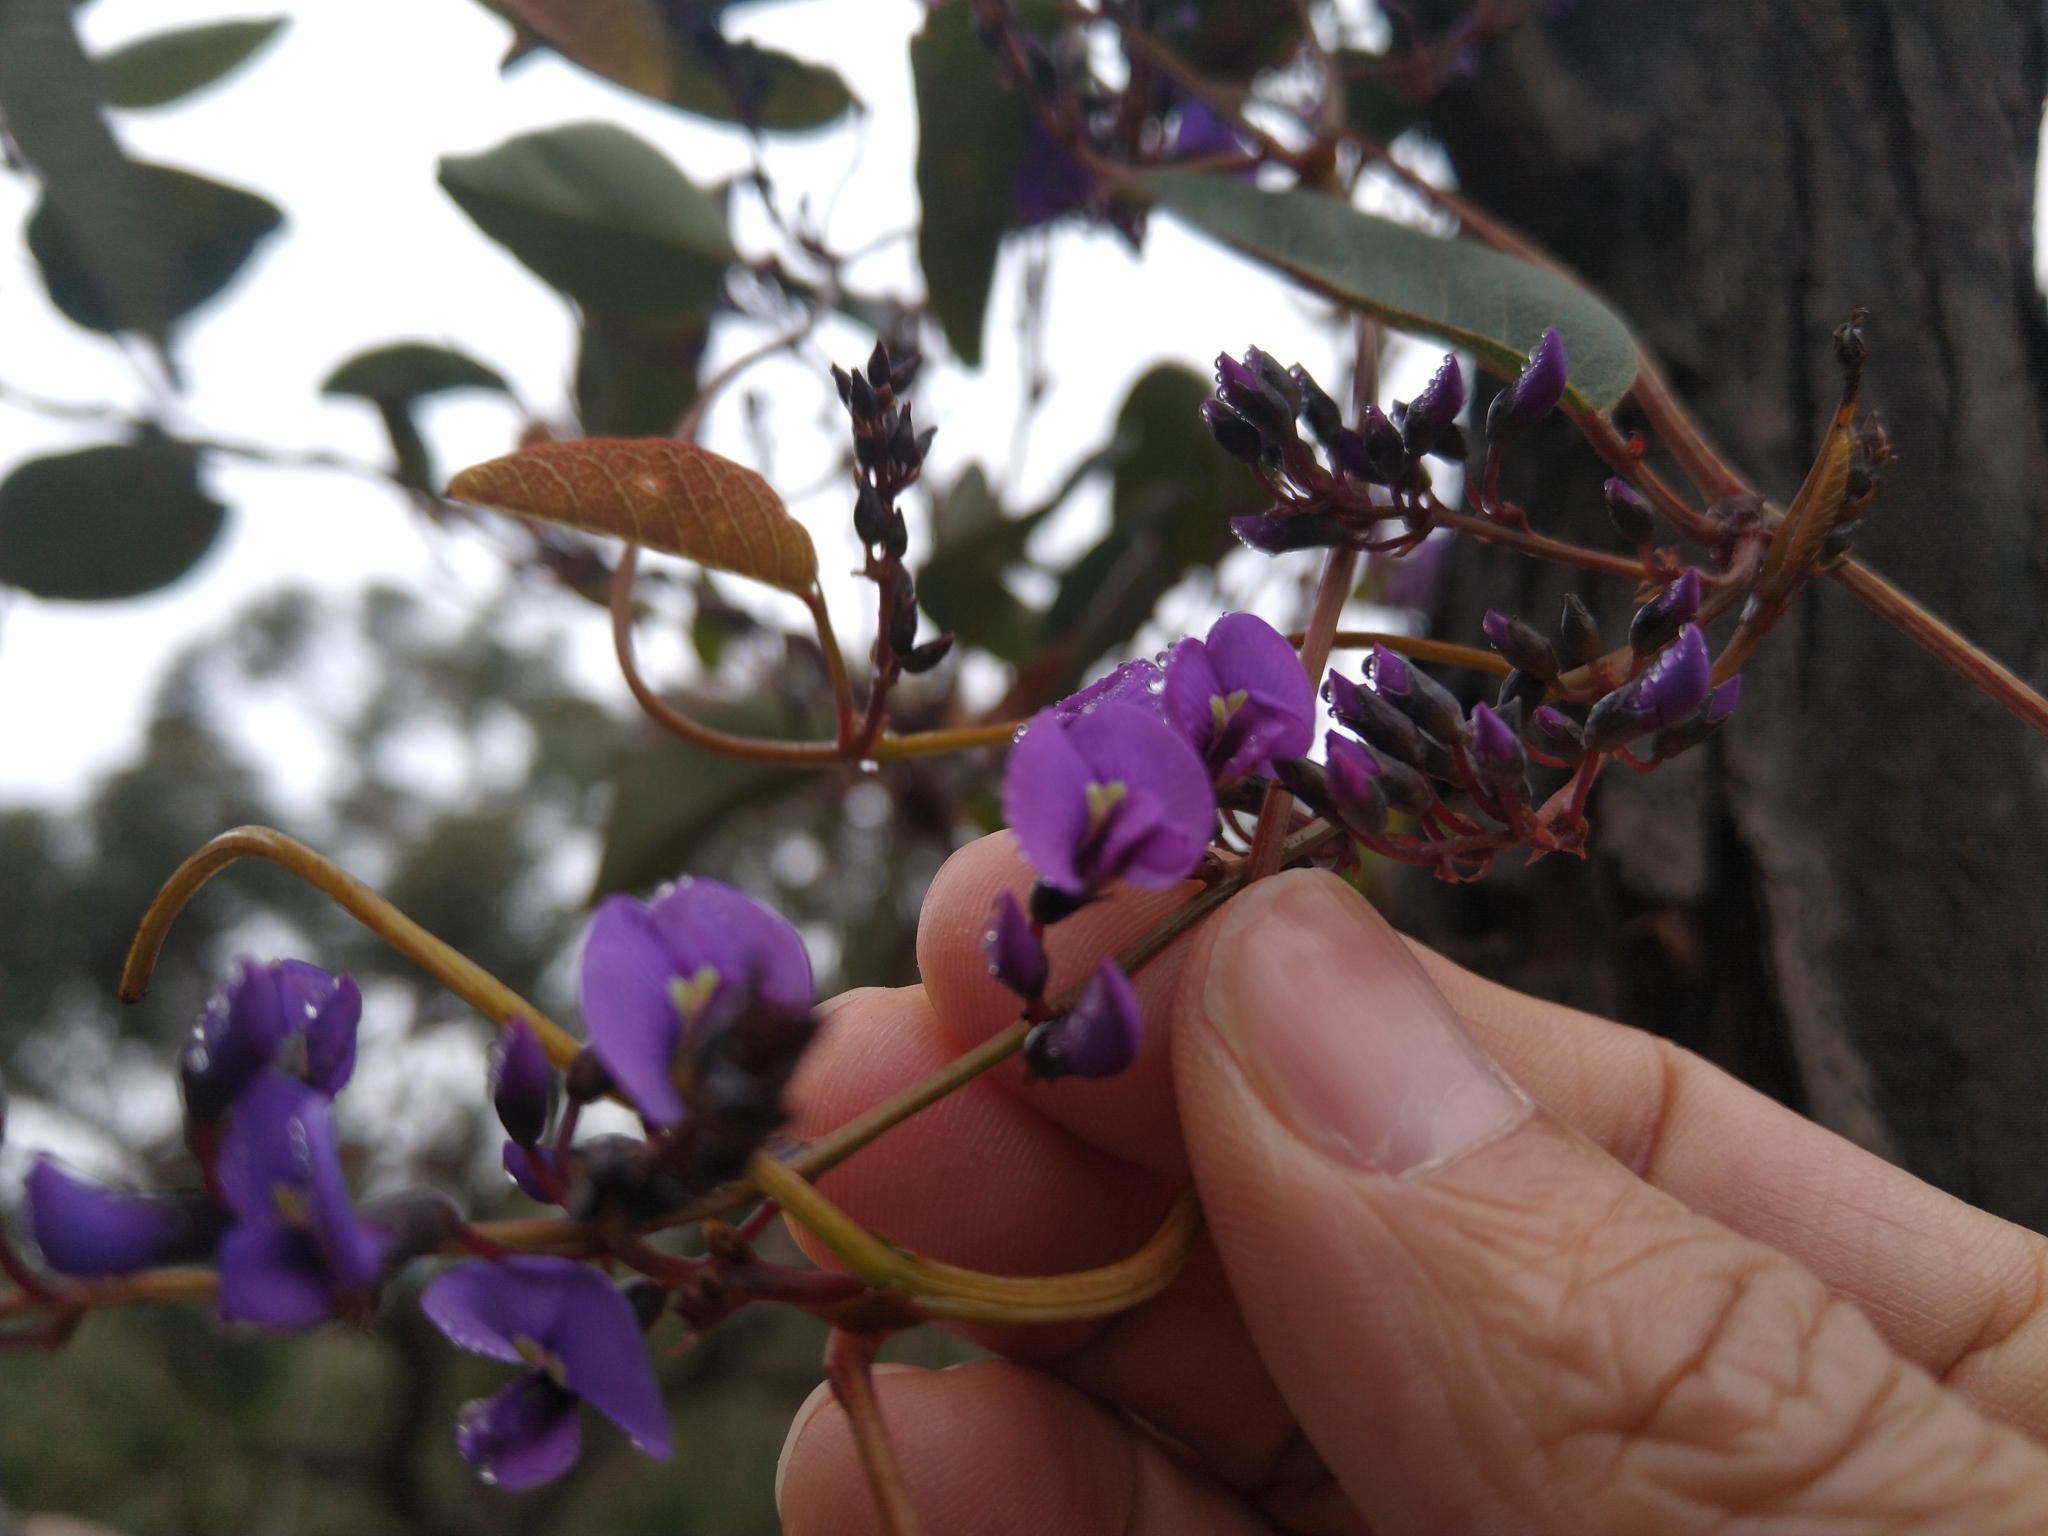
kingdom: Plantae
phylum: Tracheophyta
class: Magnoliopsida
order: Fabales
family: Fabaceae
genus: Hardenbergia
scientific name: Hardenbergia violacea
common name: Coral-pea
